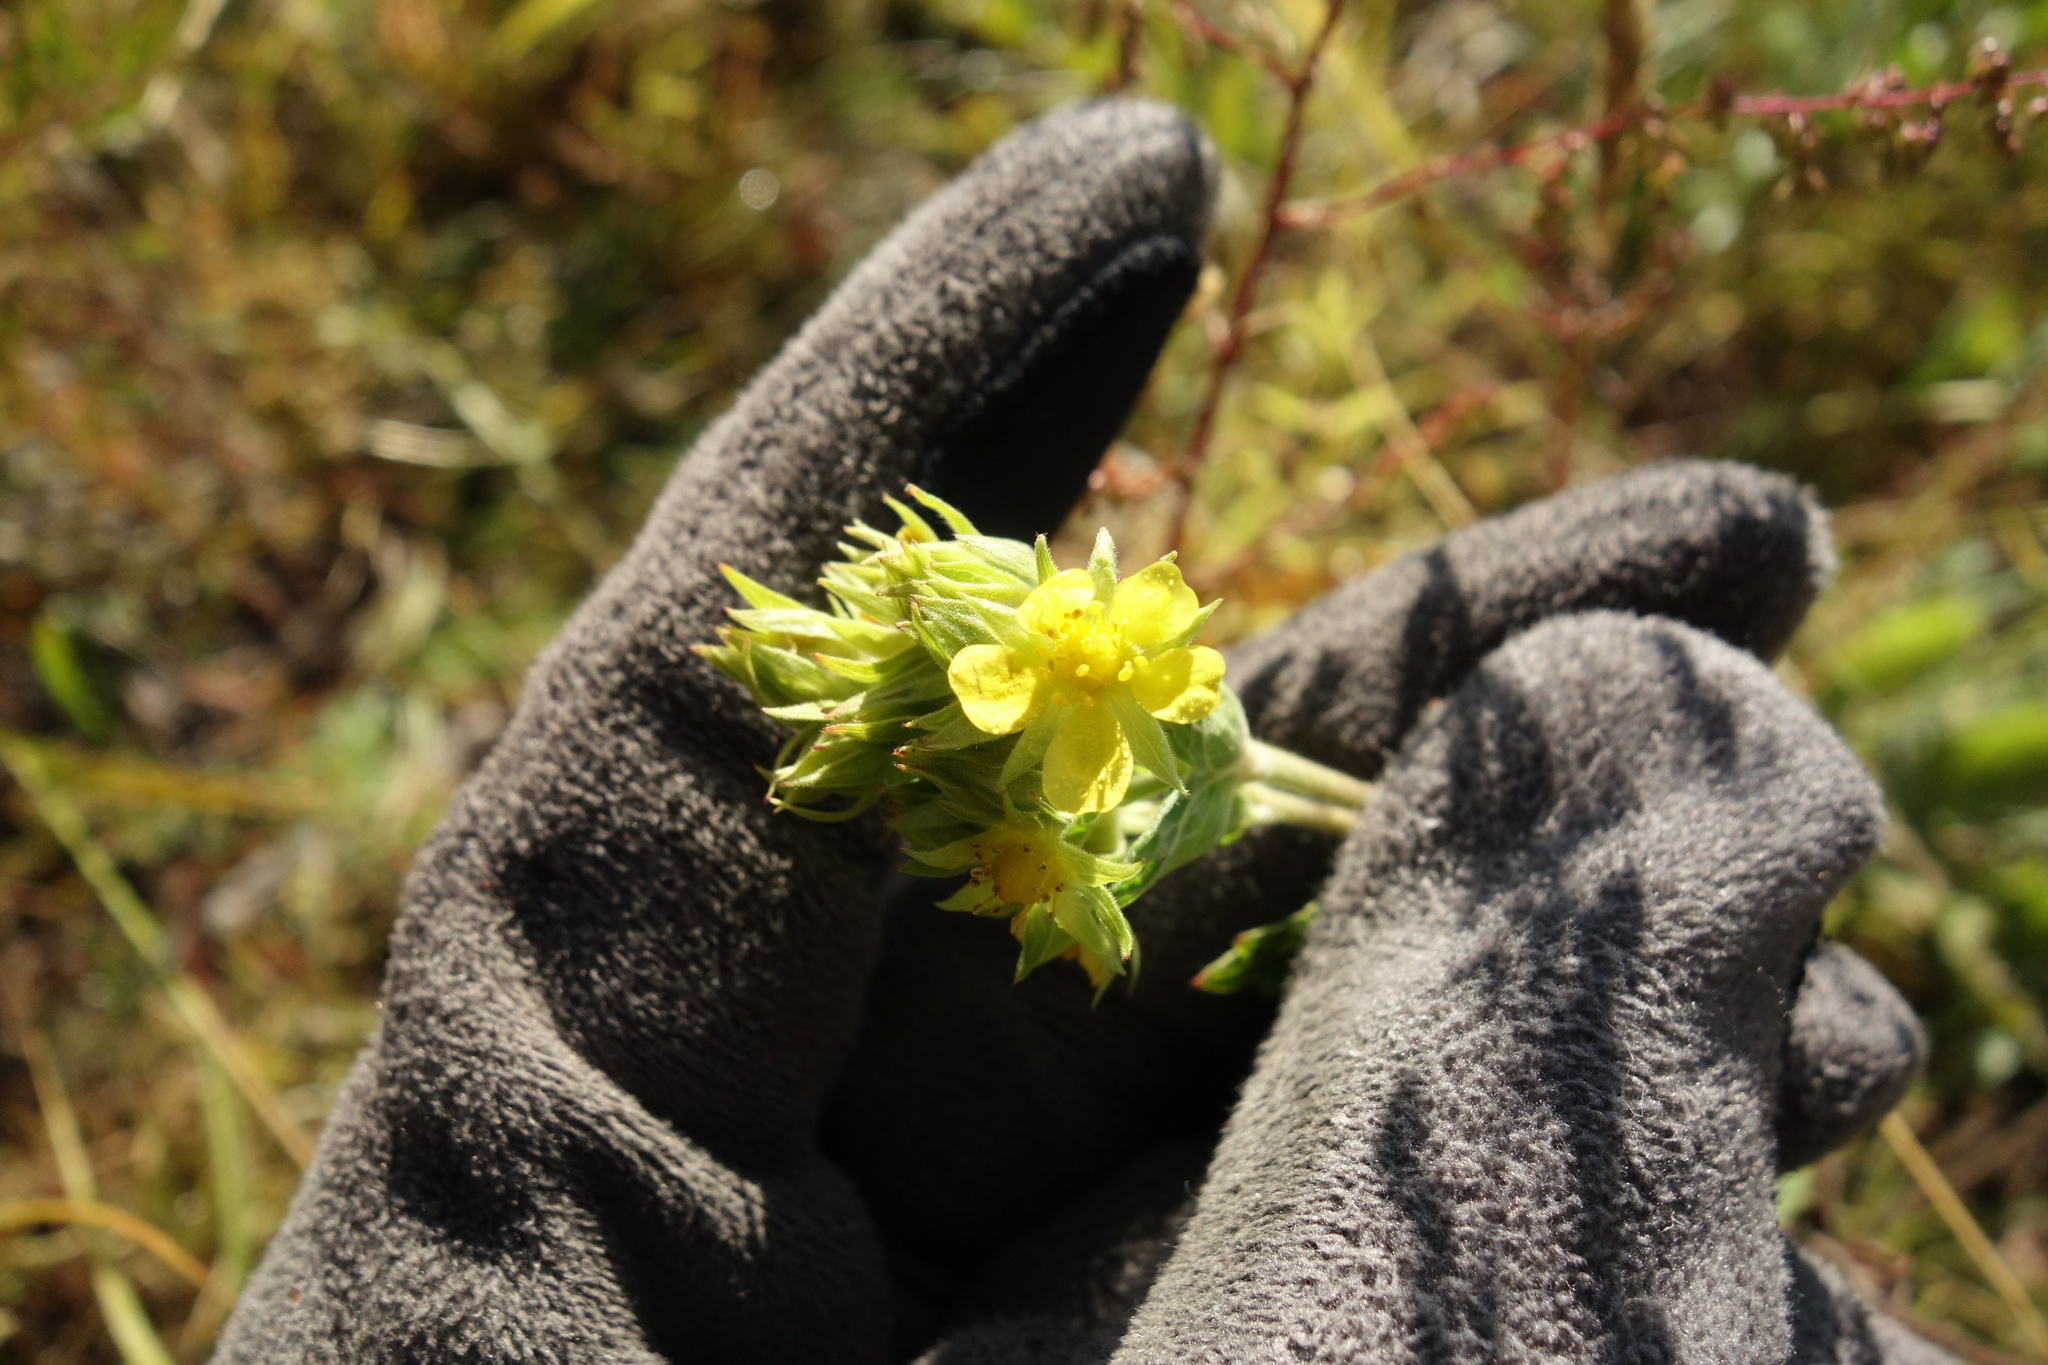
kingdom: Plantae
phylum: Tracheophyta
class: Magnoliopsida
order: Rosales
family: Rosaceae
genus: Potentilla
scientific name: Potentilla longifolia
